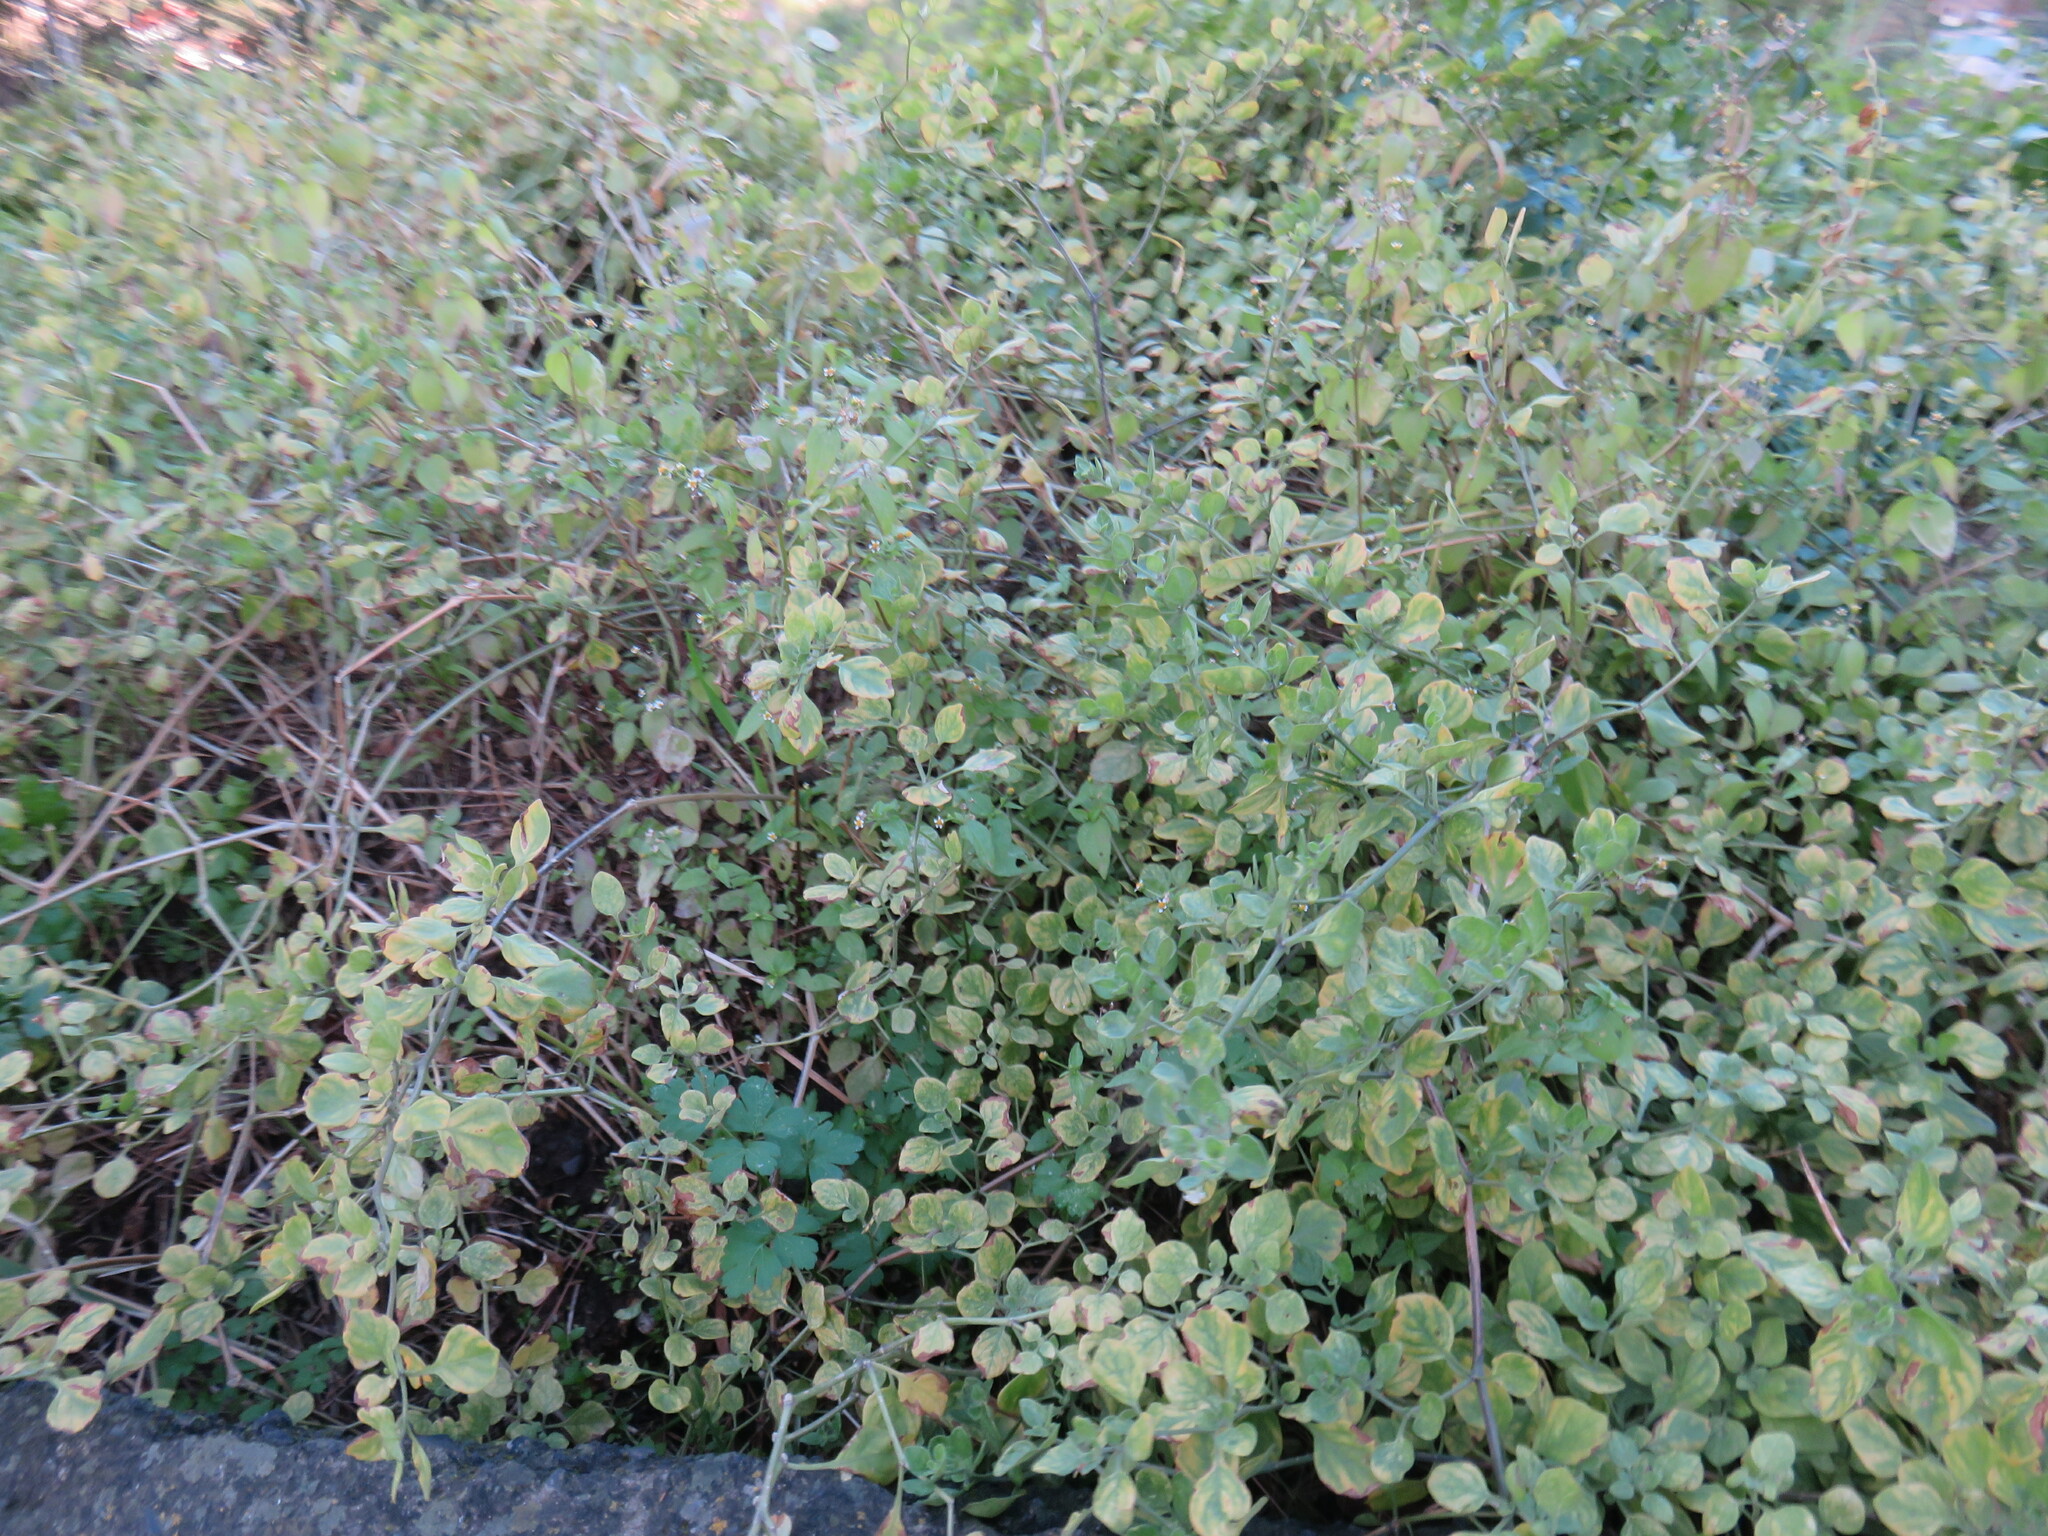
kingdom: Plantae
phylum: Tracheophyta
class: Magnoliopsida
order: Solanales
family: Solanaceae
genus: Salpichroa
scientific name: Salpichroa origanifolia
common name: Lily-of-the-valley-vine
